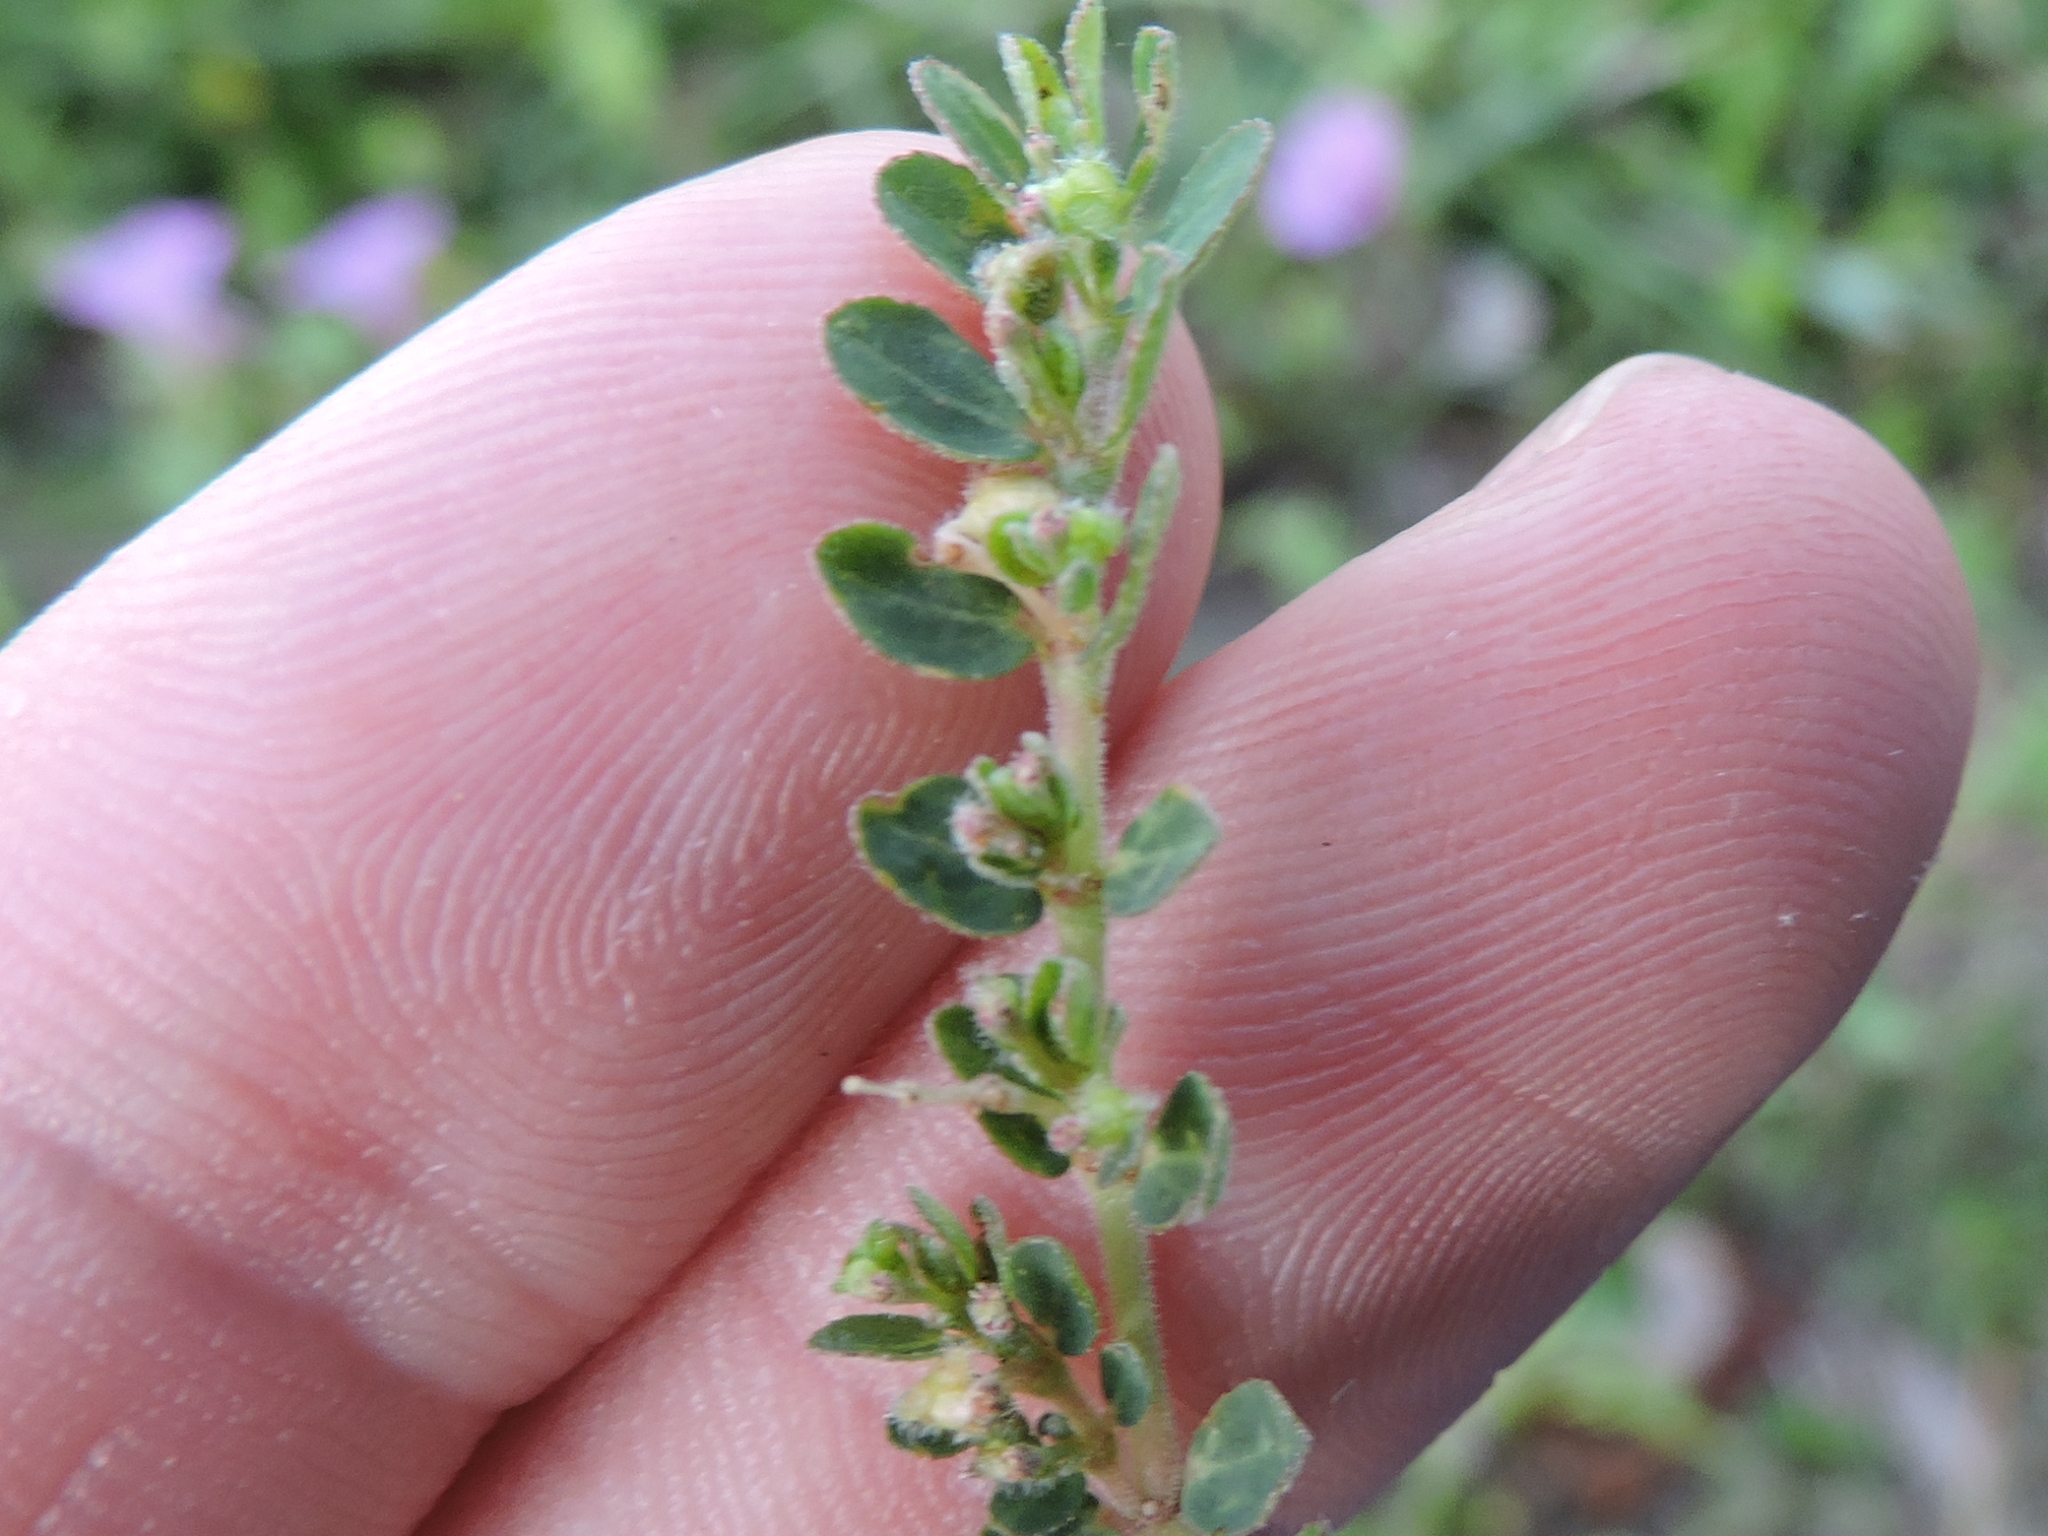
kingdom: Plantae
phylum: Tracheophyta
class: Magnoliopsida
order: Malpighiales
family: Euphorbiaceae
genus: Euphorbia
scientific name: Euphorbia prostrata
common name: Prostrate sandmat
